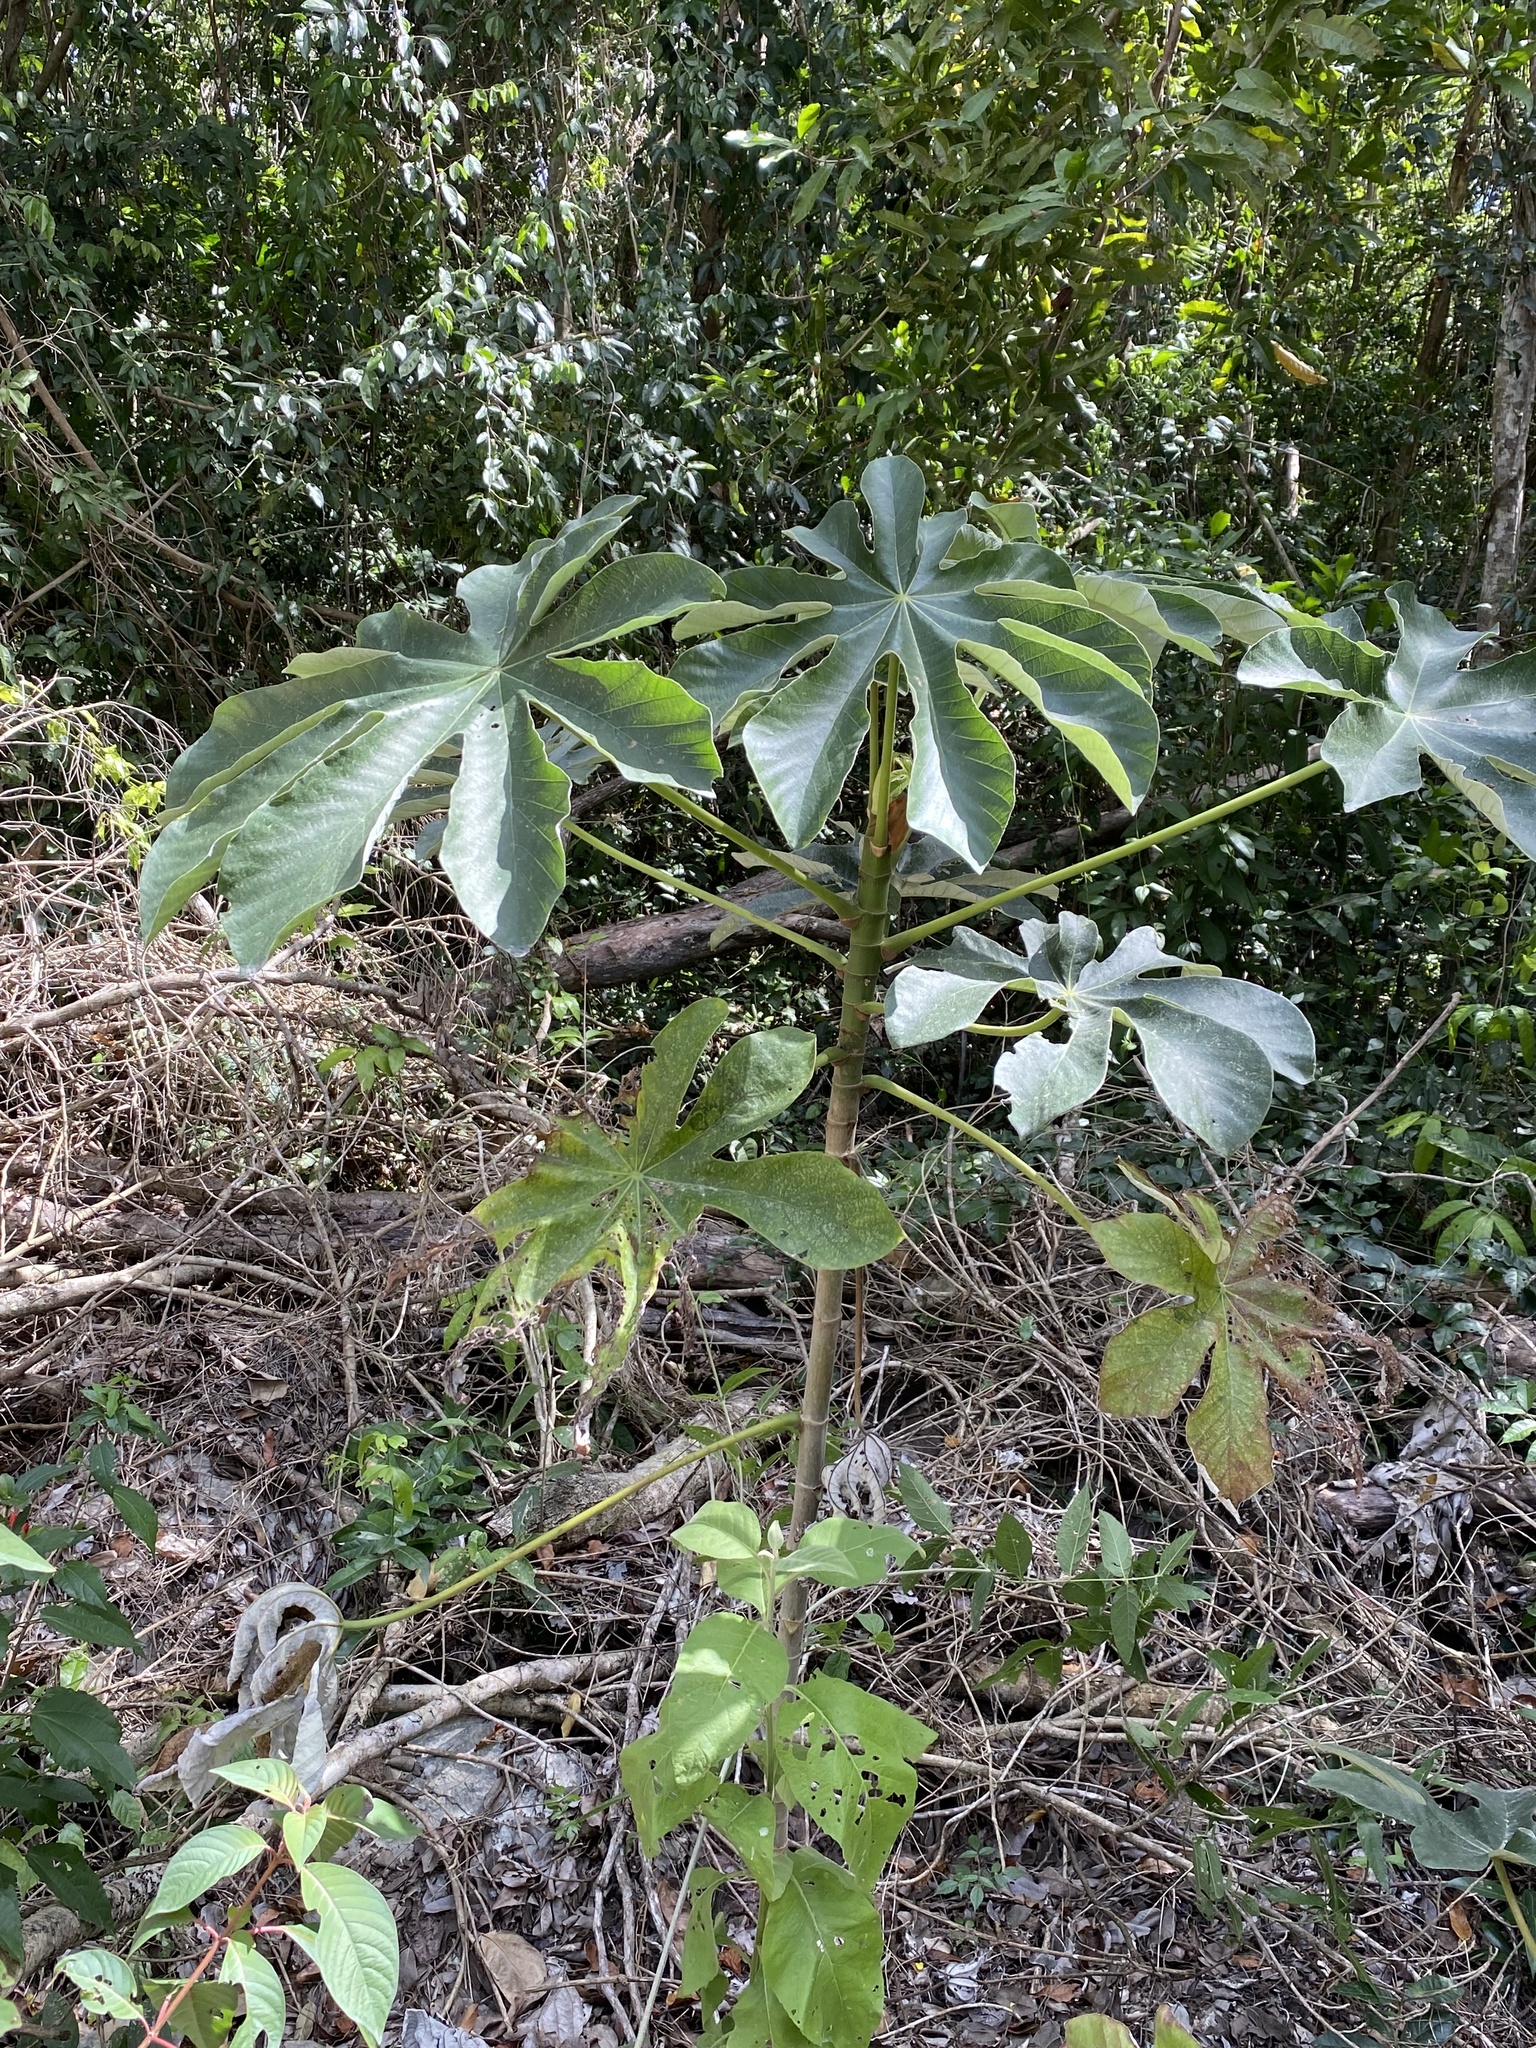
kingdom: Plantae
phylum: Tracheophyta
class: Magnoliopsida
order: Rosales
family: Urticaceae
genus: Cecropia
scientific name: Cecropia peltata
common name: Trumpet-tree
